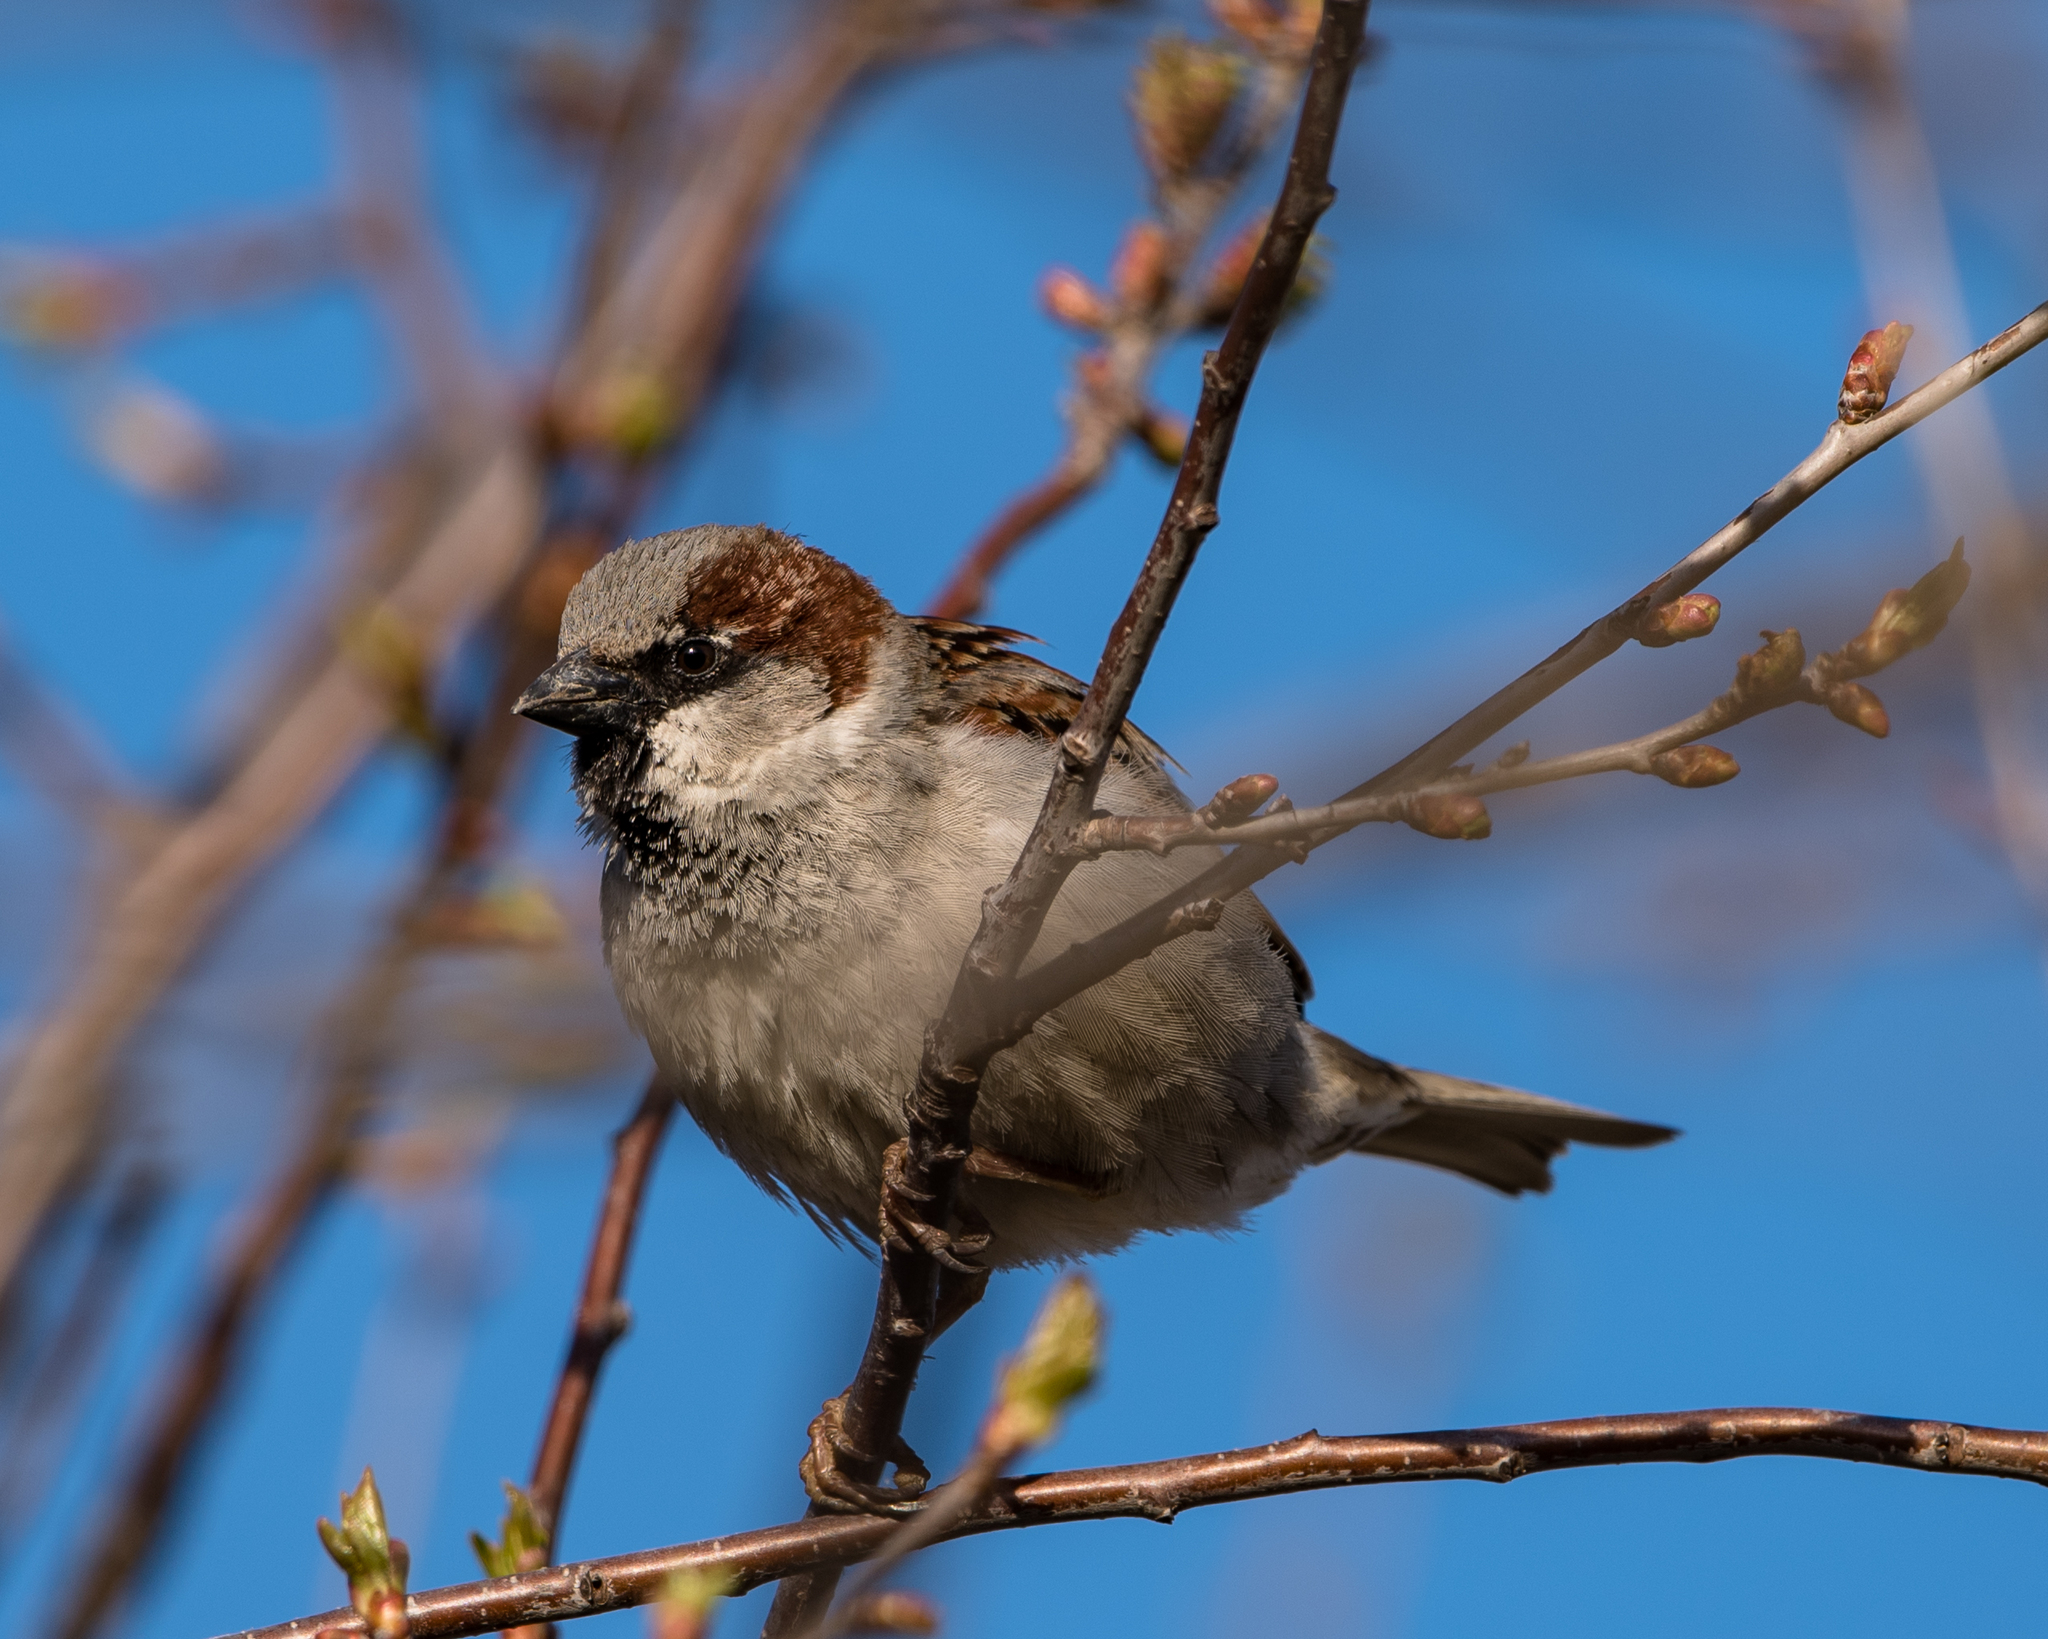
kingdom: Animalia
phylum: Chordata
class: Aves
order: Passeriformes
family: Passeridae
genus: Passer
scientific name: Passer domesticus
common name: House sparrow
